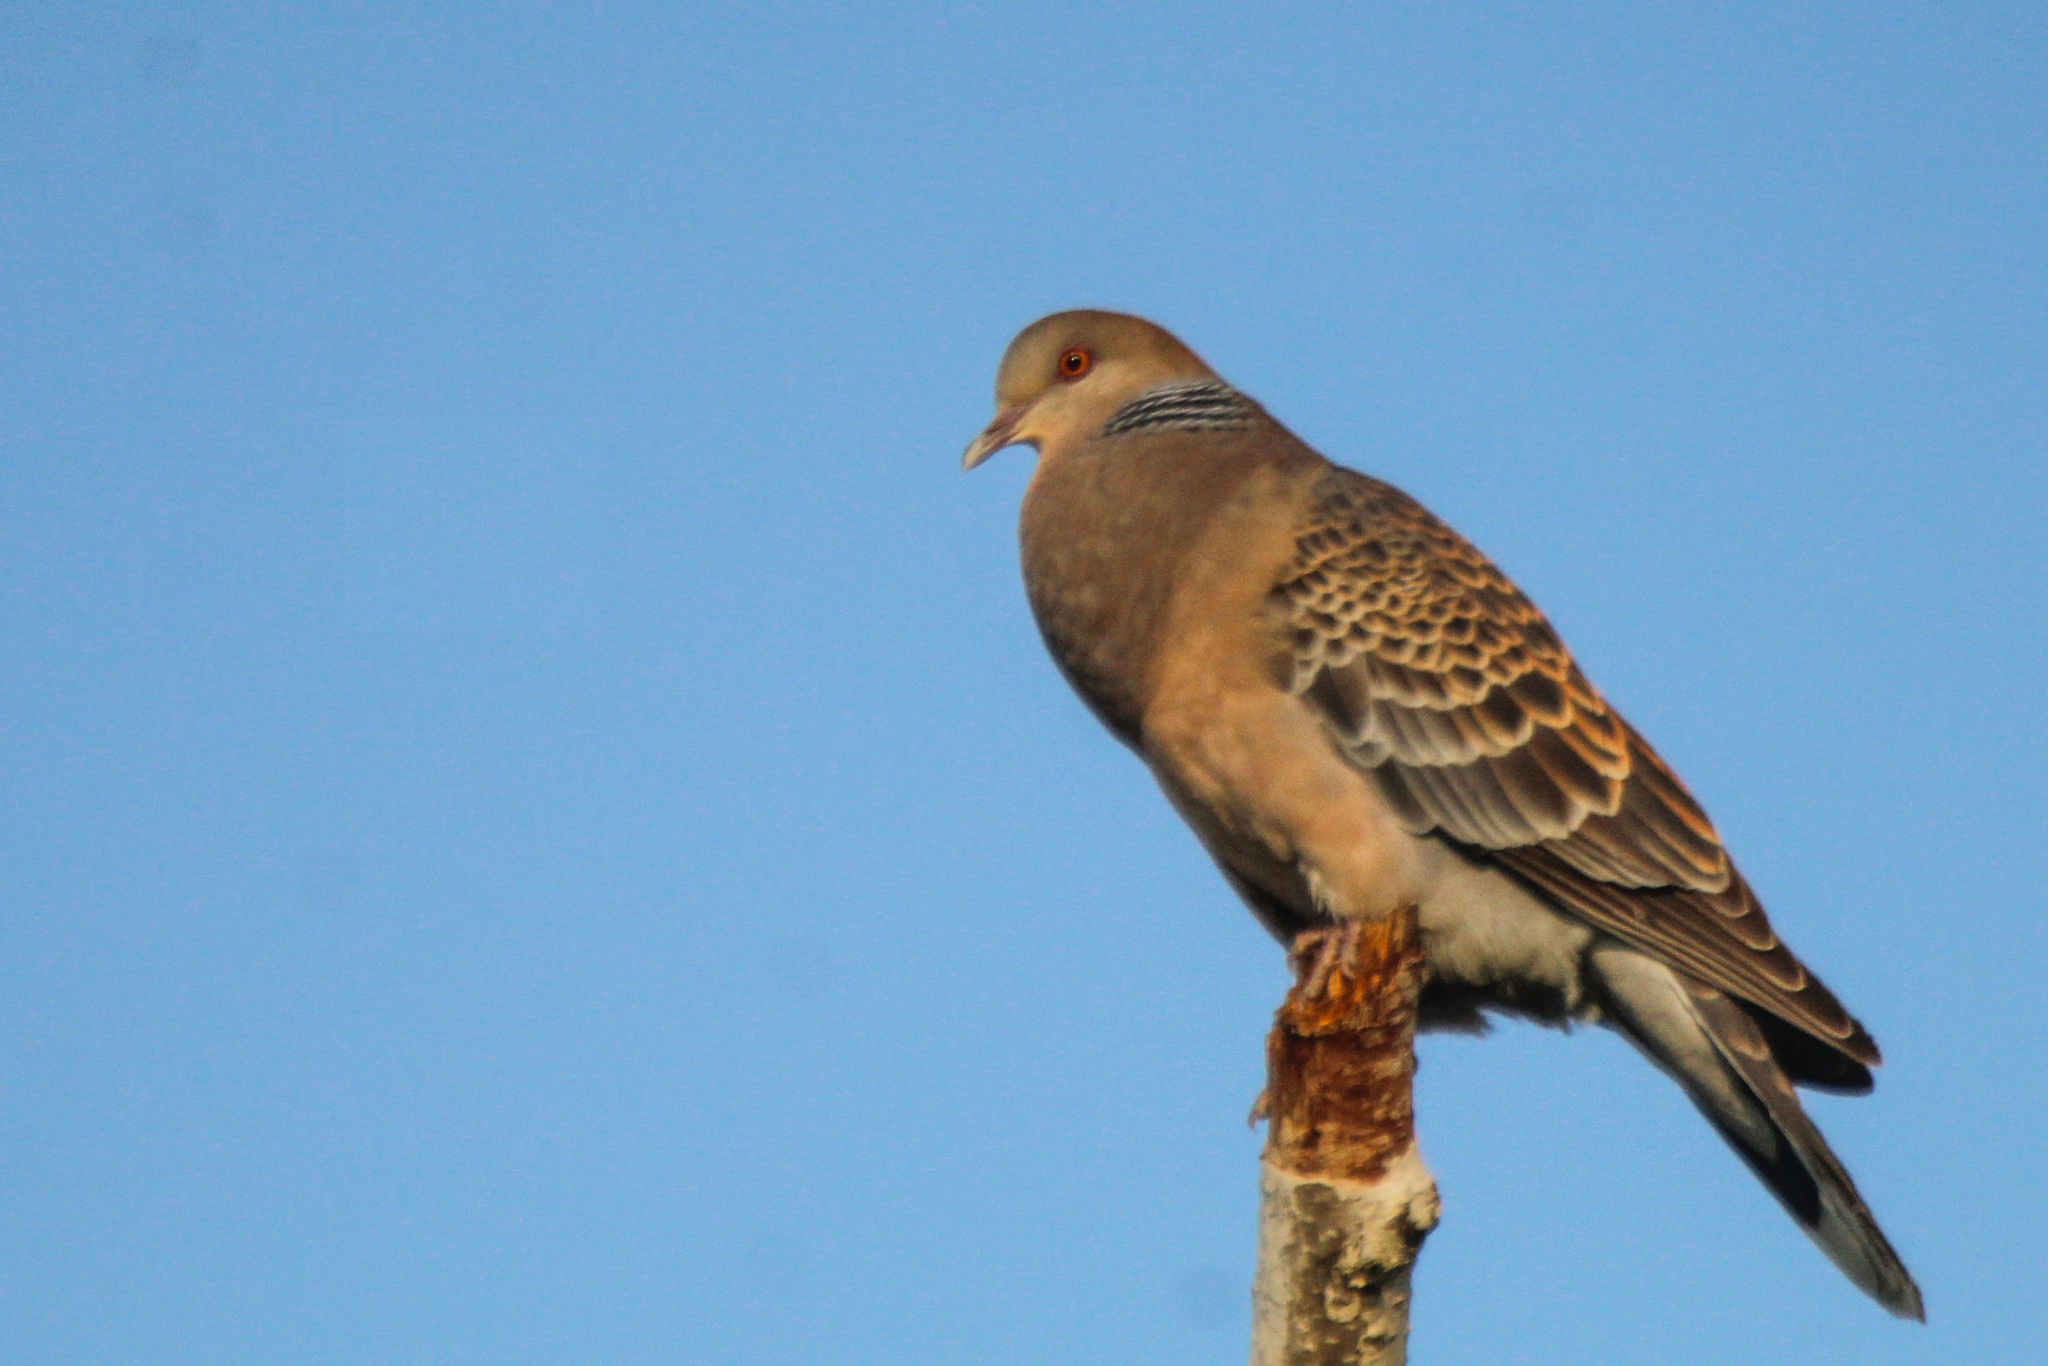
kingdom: Animalia
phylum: Chordata
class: Aves
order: Columbiformes
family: Columbidae
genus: Streptopelia
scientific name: Streptopelia orientalis
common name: Oriental turtle dove
